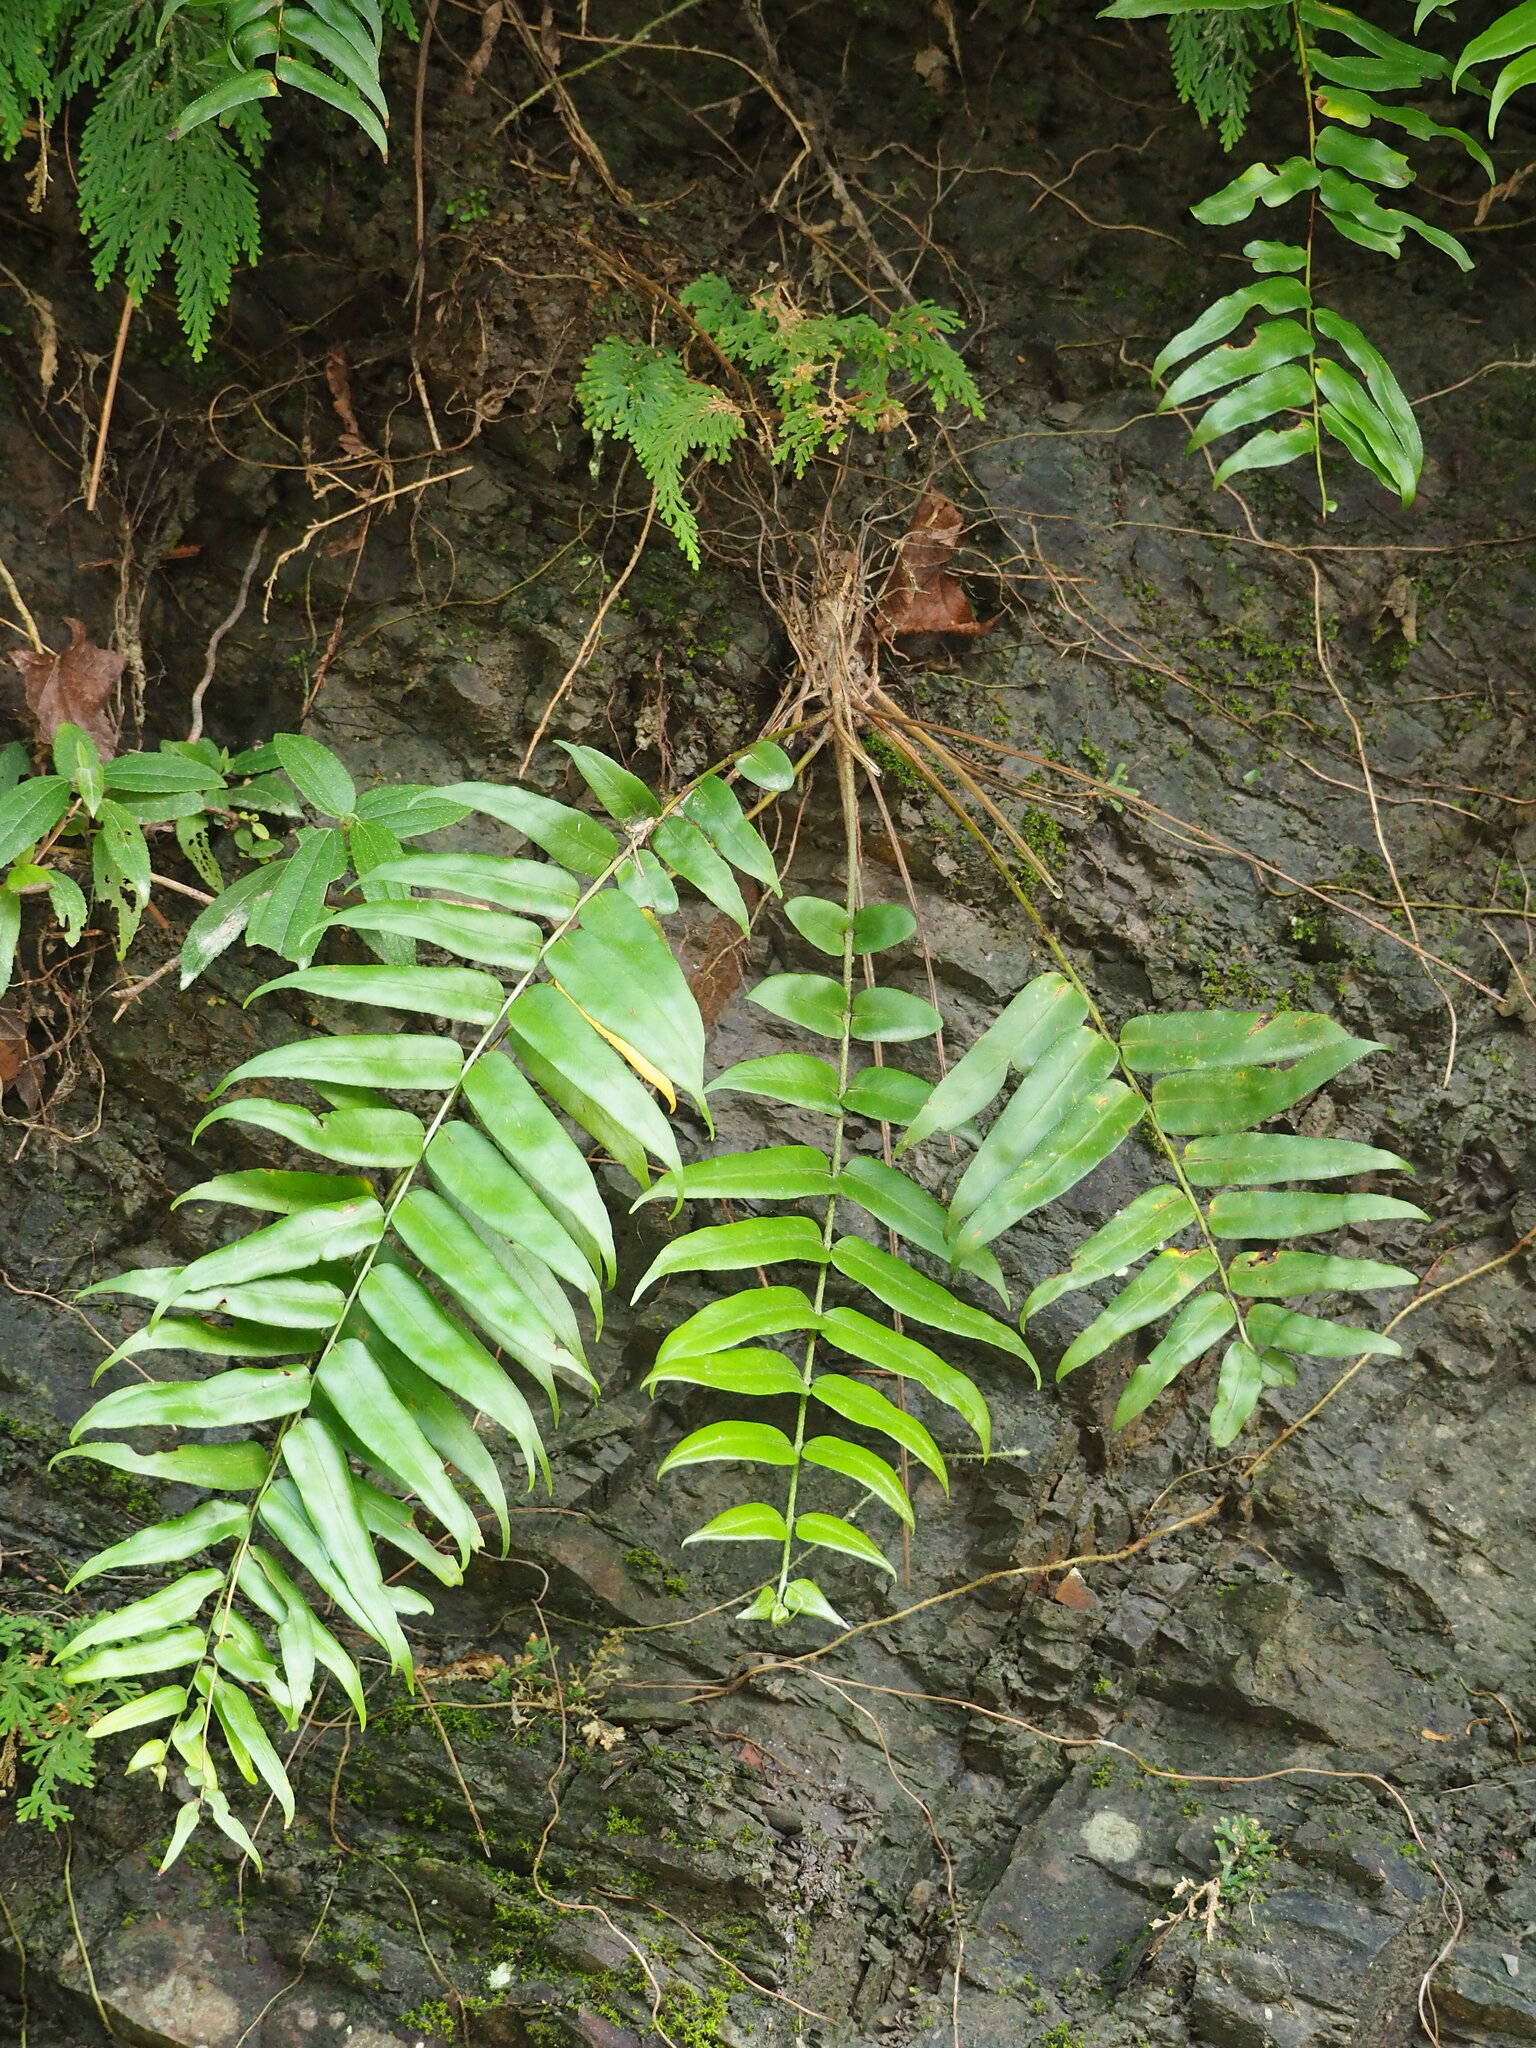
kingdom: Plantae
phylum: Tracheophyta
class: Polypodiopsida
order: Polypodiales
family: Nephrolepidaceae
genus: Nephrolepis
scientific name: Nephrolepis biserrata
